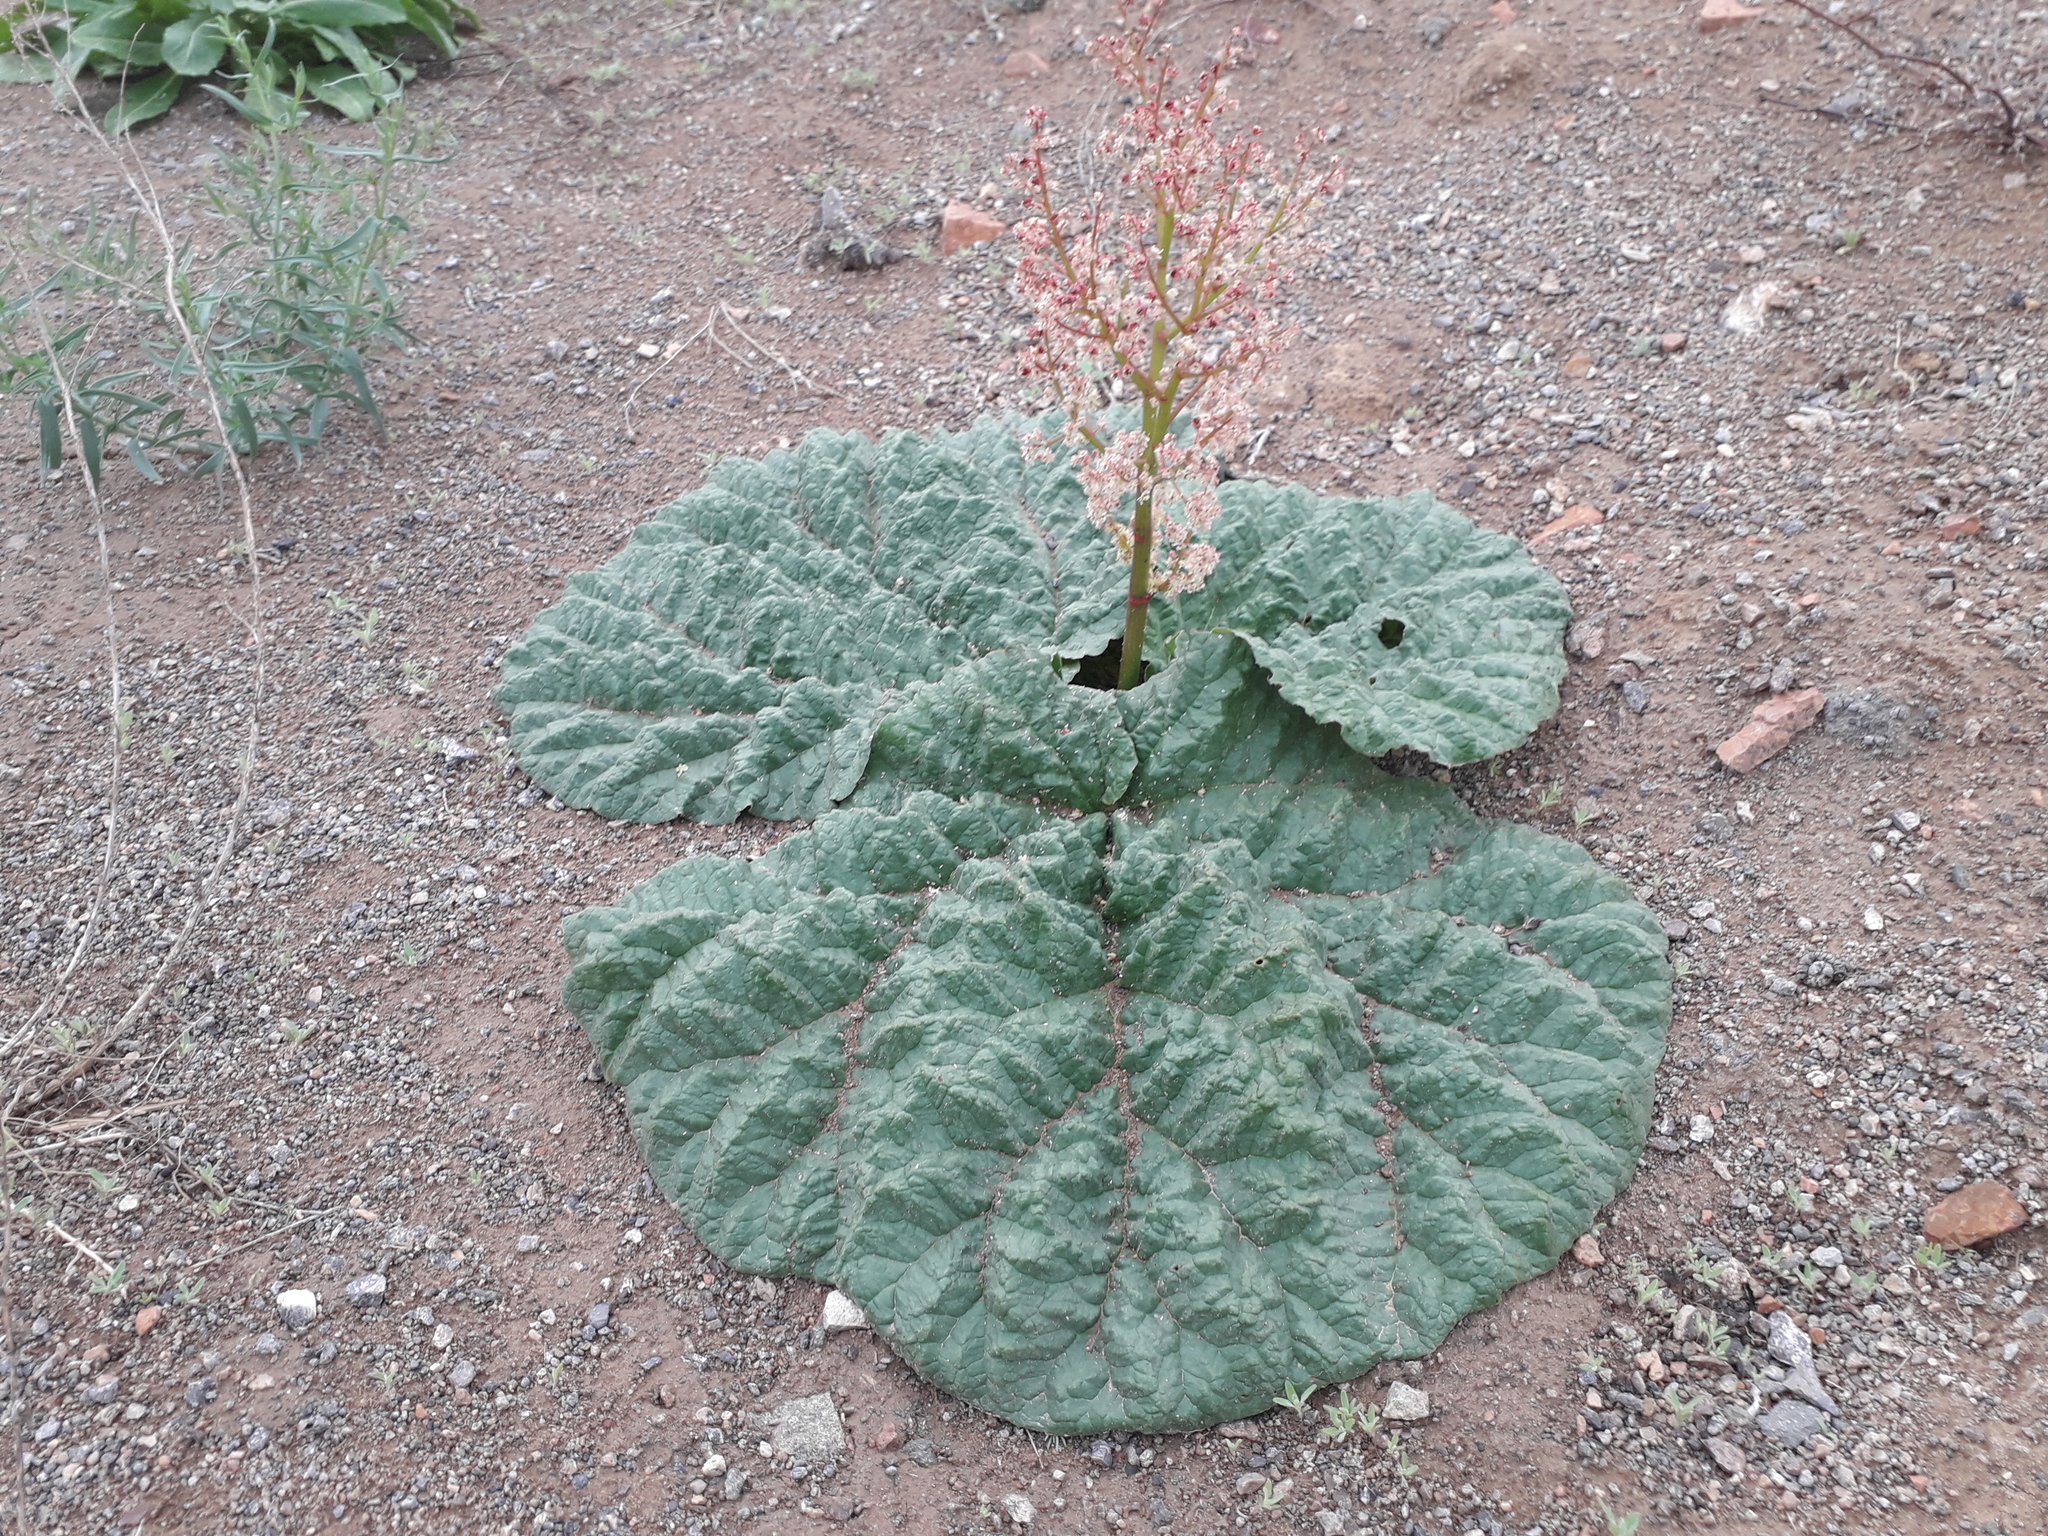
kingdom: Plantae
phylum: Tracheophyta
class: Magnoliopsida
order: Caryophyllales
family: Polygonaceae
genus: Rheum
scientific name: Rheum tataricum
